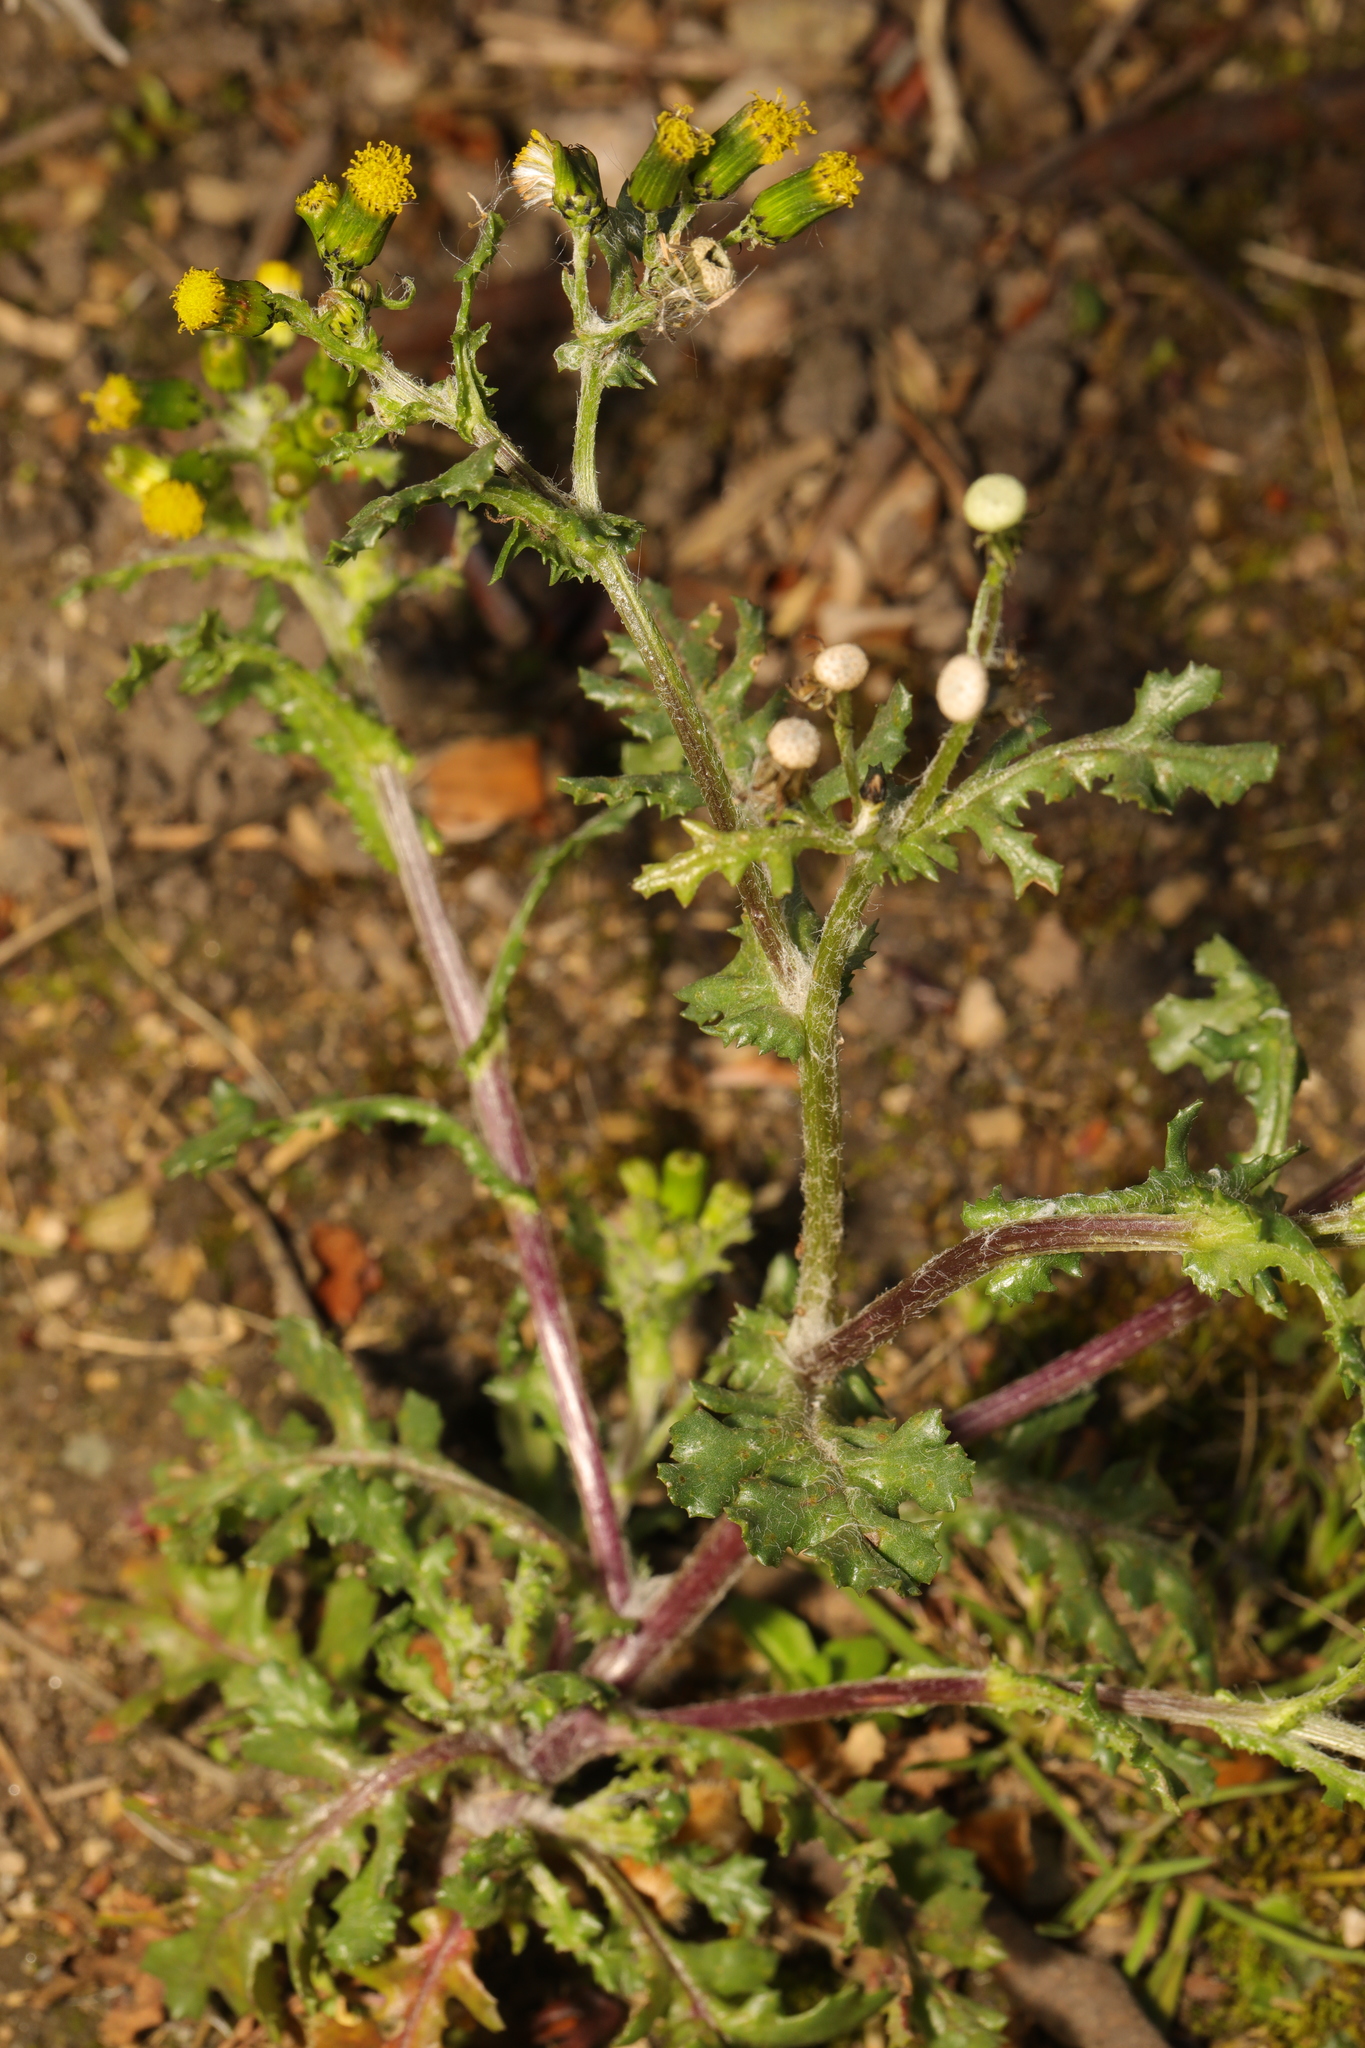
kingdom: Plantae
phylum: Tracheophyta
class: Magnoliopsida
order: Asterales
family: Asteraceae
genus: Senecio
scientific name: Senecio vulgaris
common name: Old-man-in-the-spring
